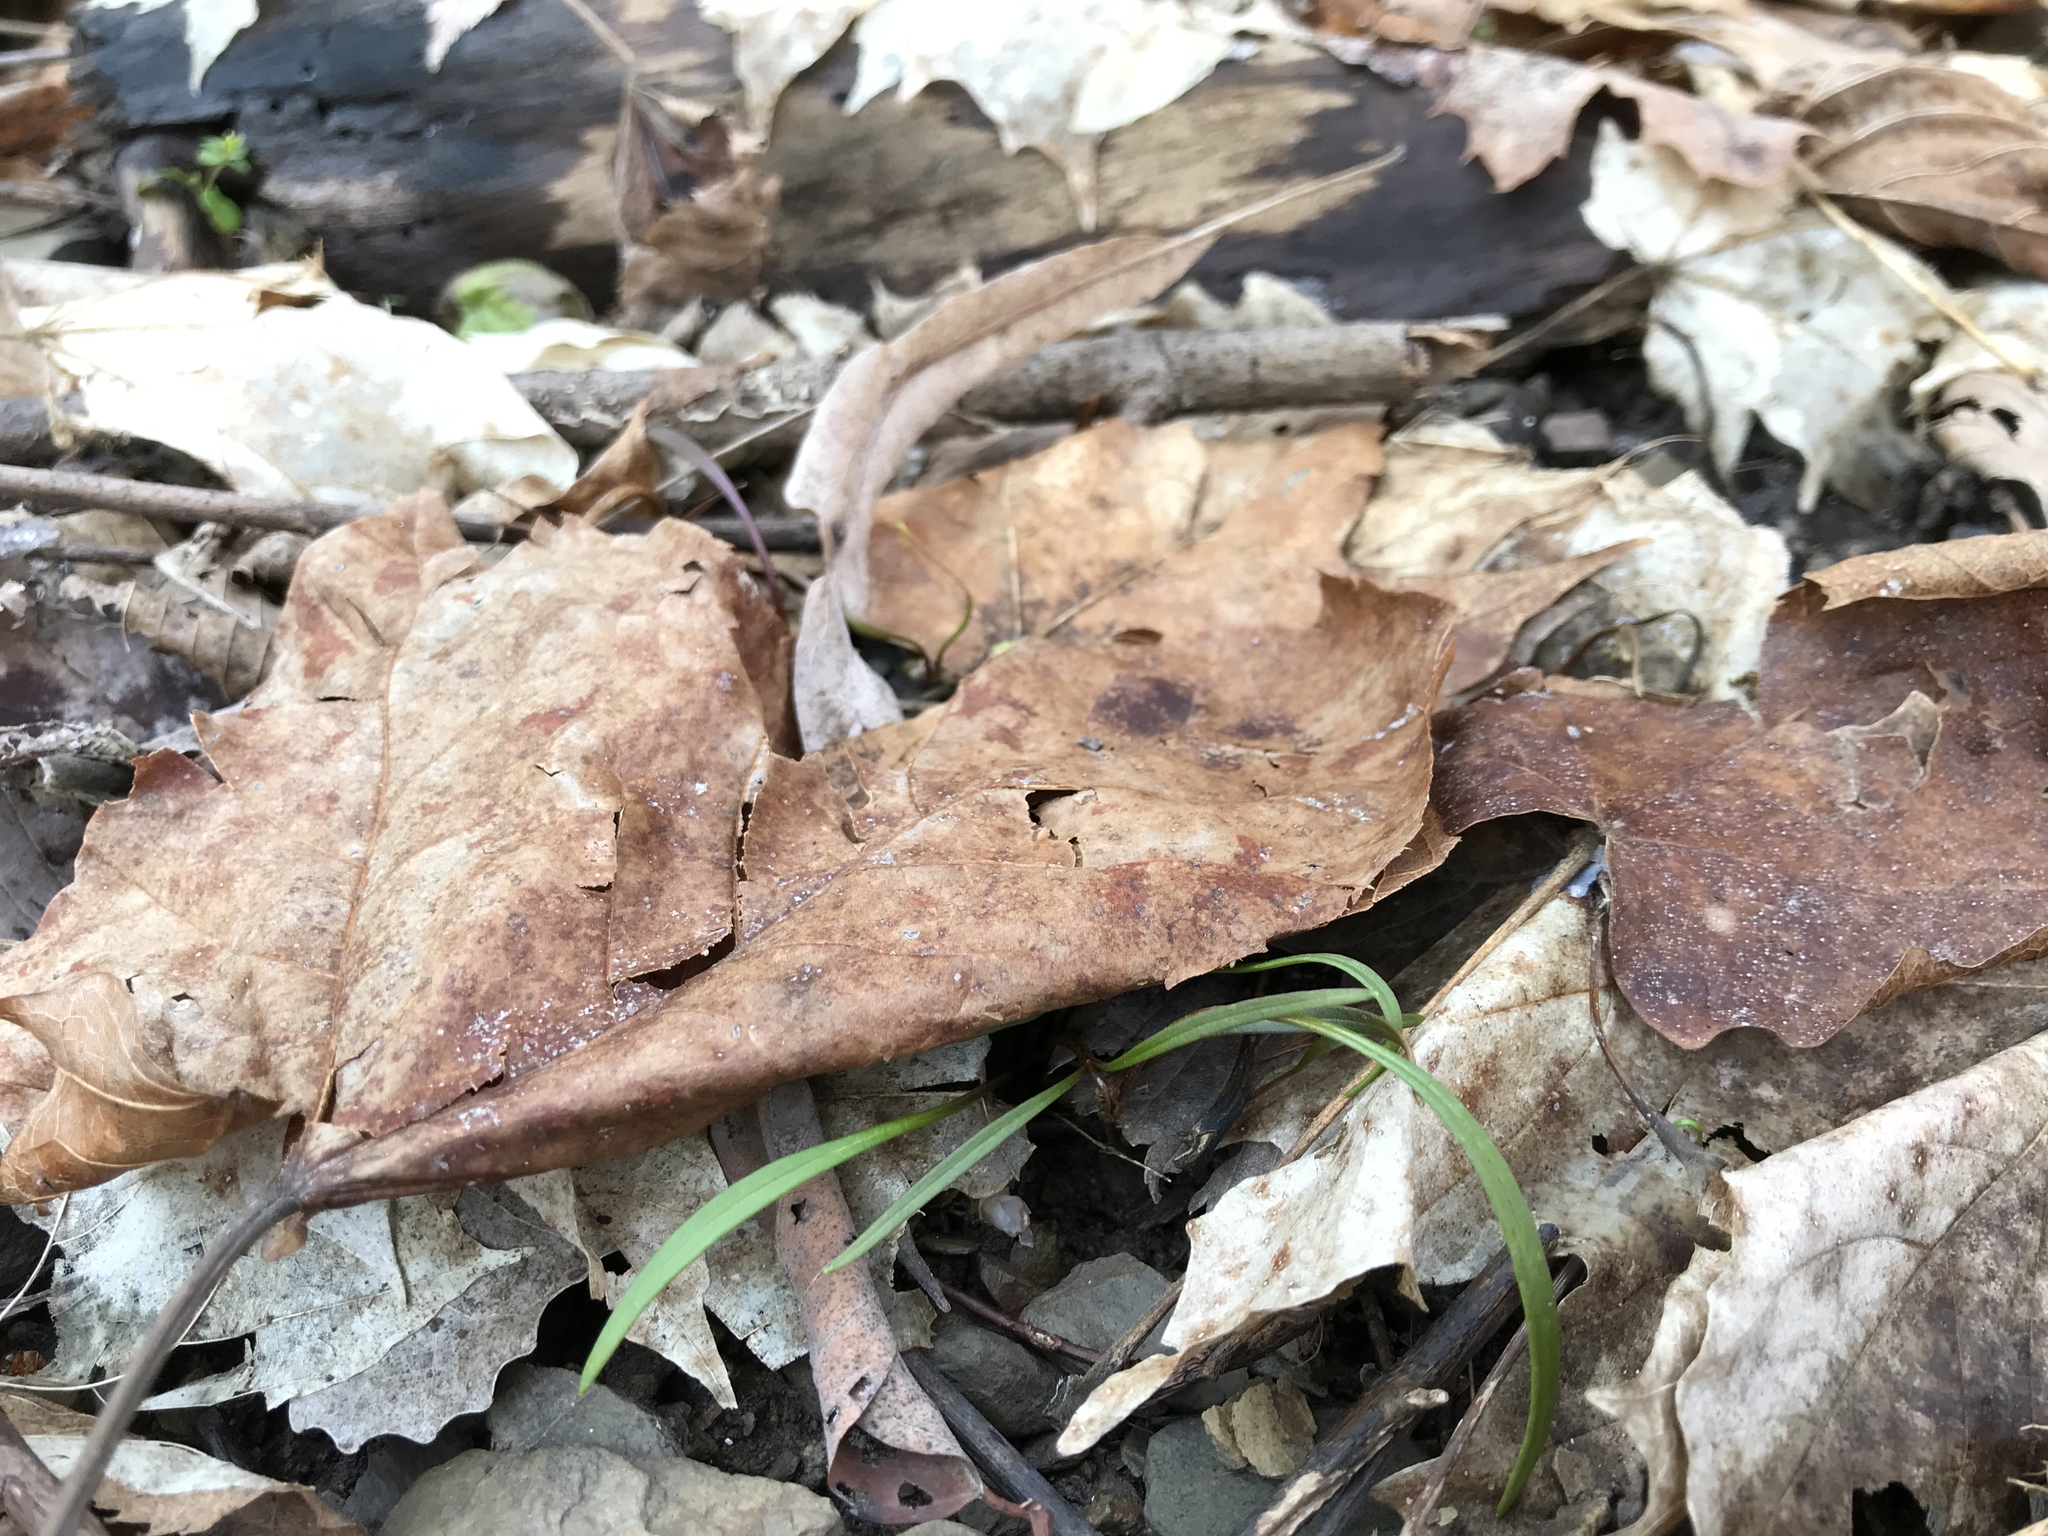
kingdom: Plantae
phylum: Tracheophyta
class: Magnoliopsida
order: Caryophyllales
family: Montiaceae
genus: Claytonia
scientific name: Claytonia virginica
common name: Virginia springbeauty
